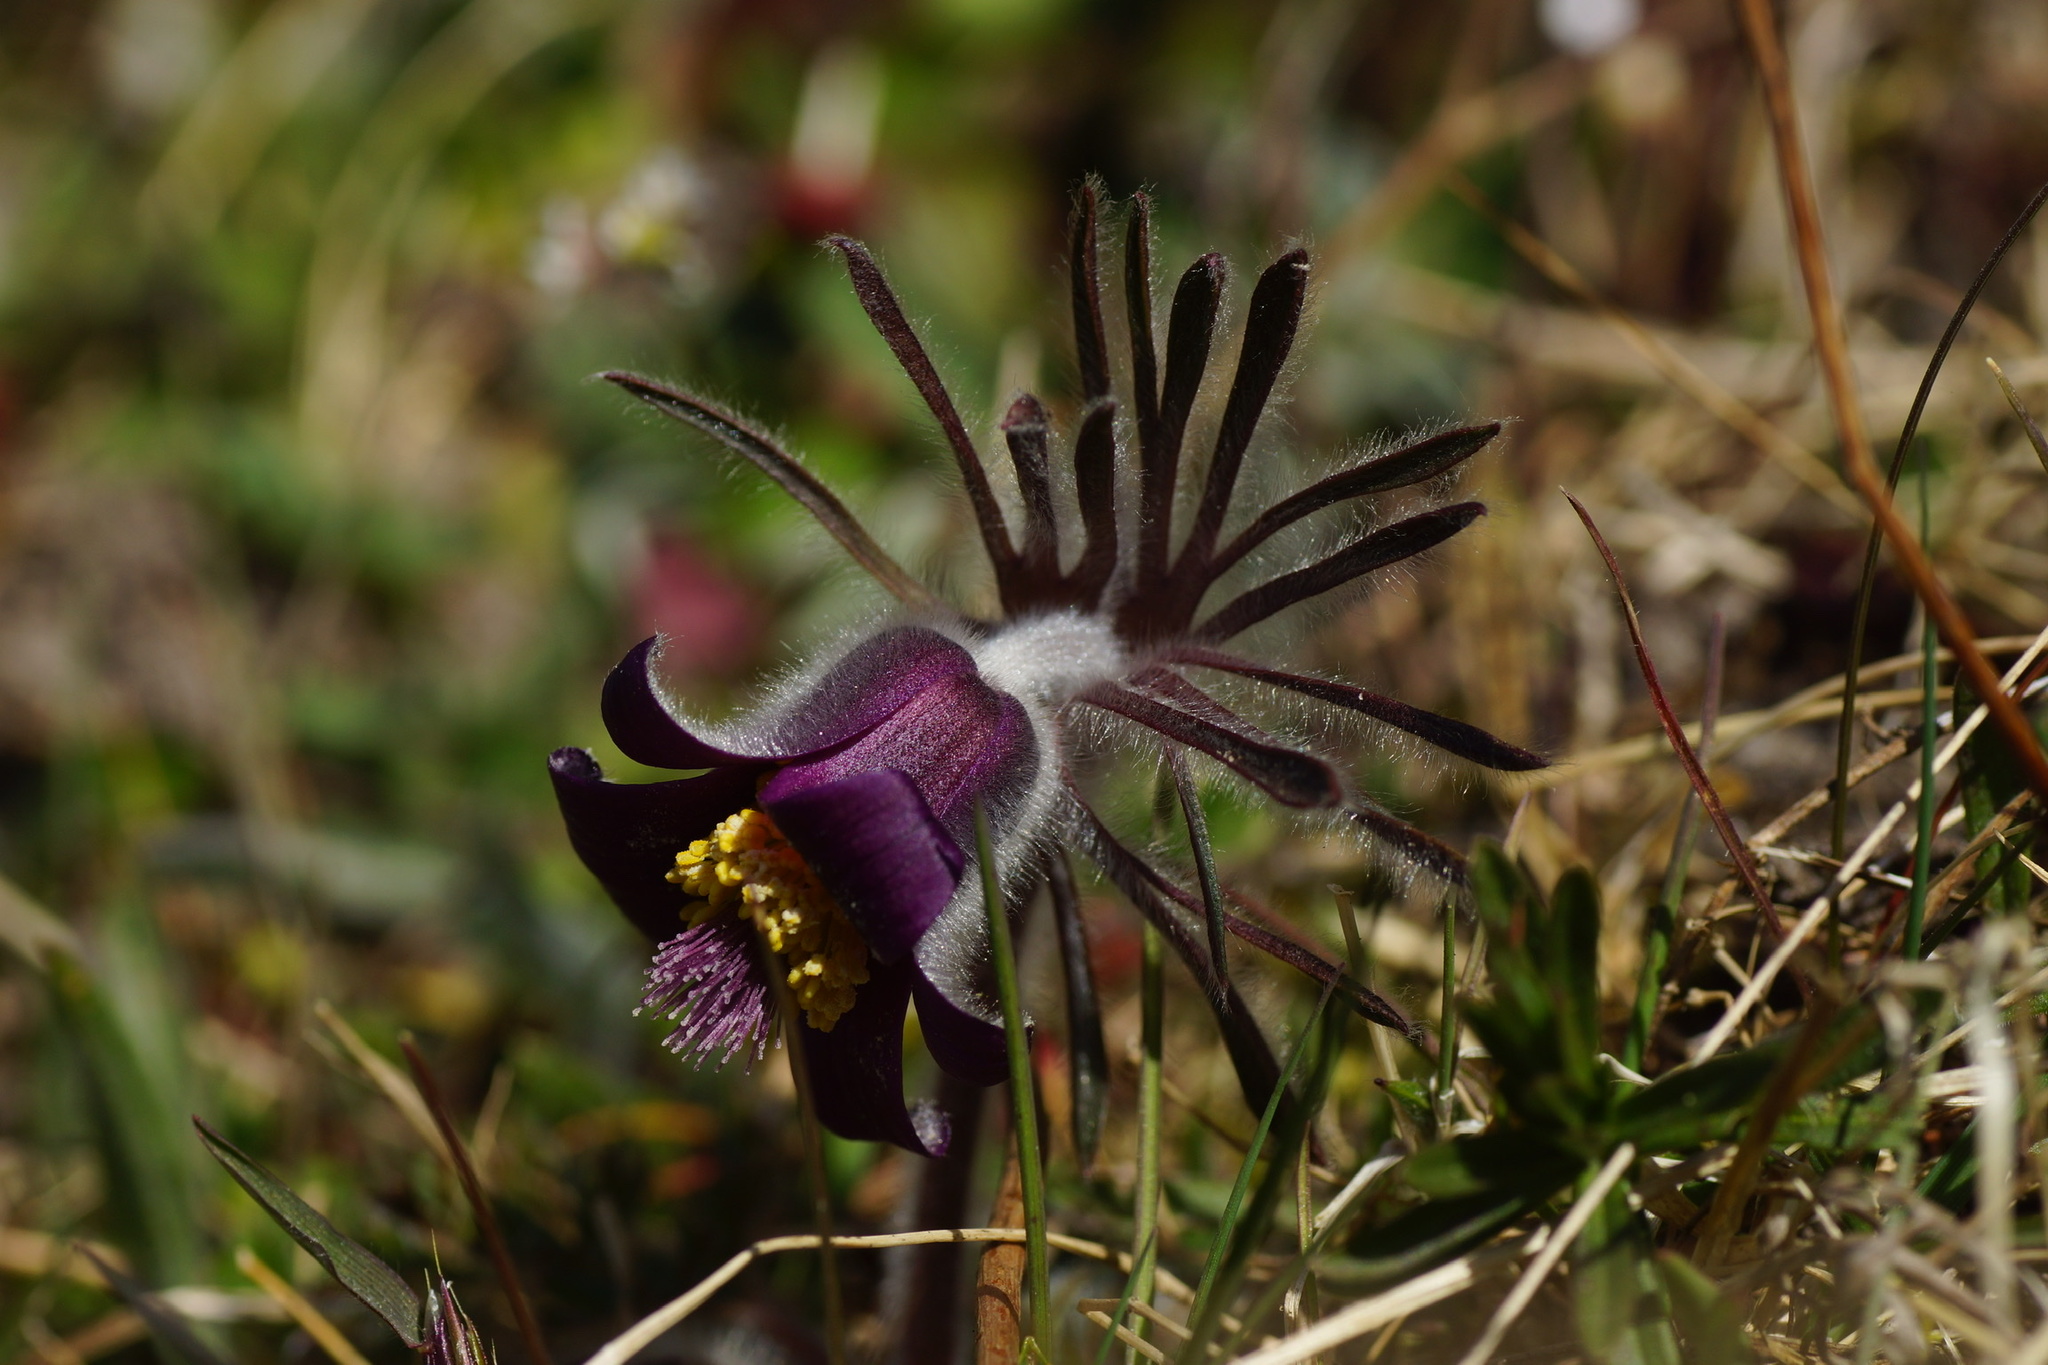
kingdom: Plantae
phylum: Tracheophyta
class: Magnoliopsida
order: Ranunculales
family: Ranunculaceae
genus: Pulsatilla
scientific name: Pulsatilla pratensis
